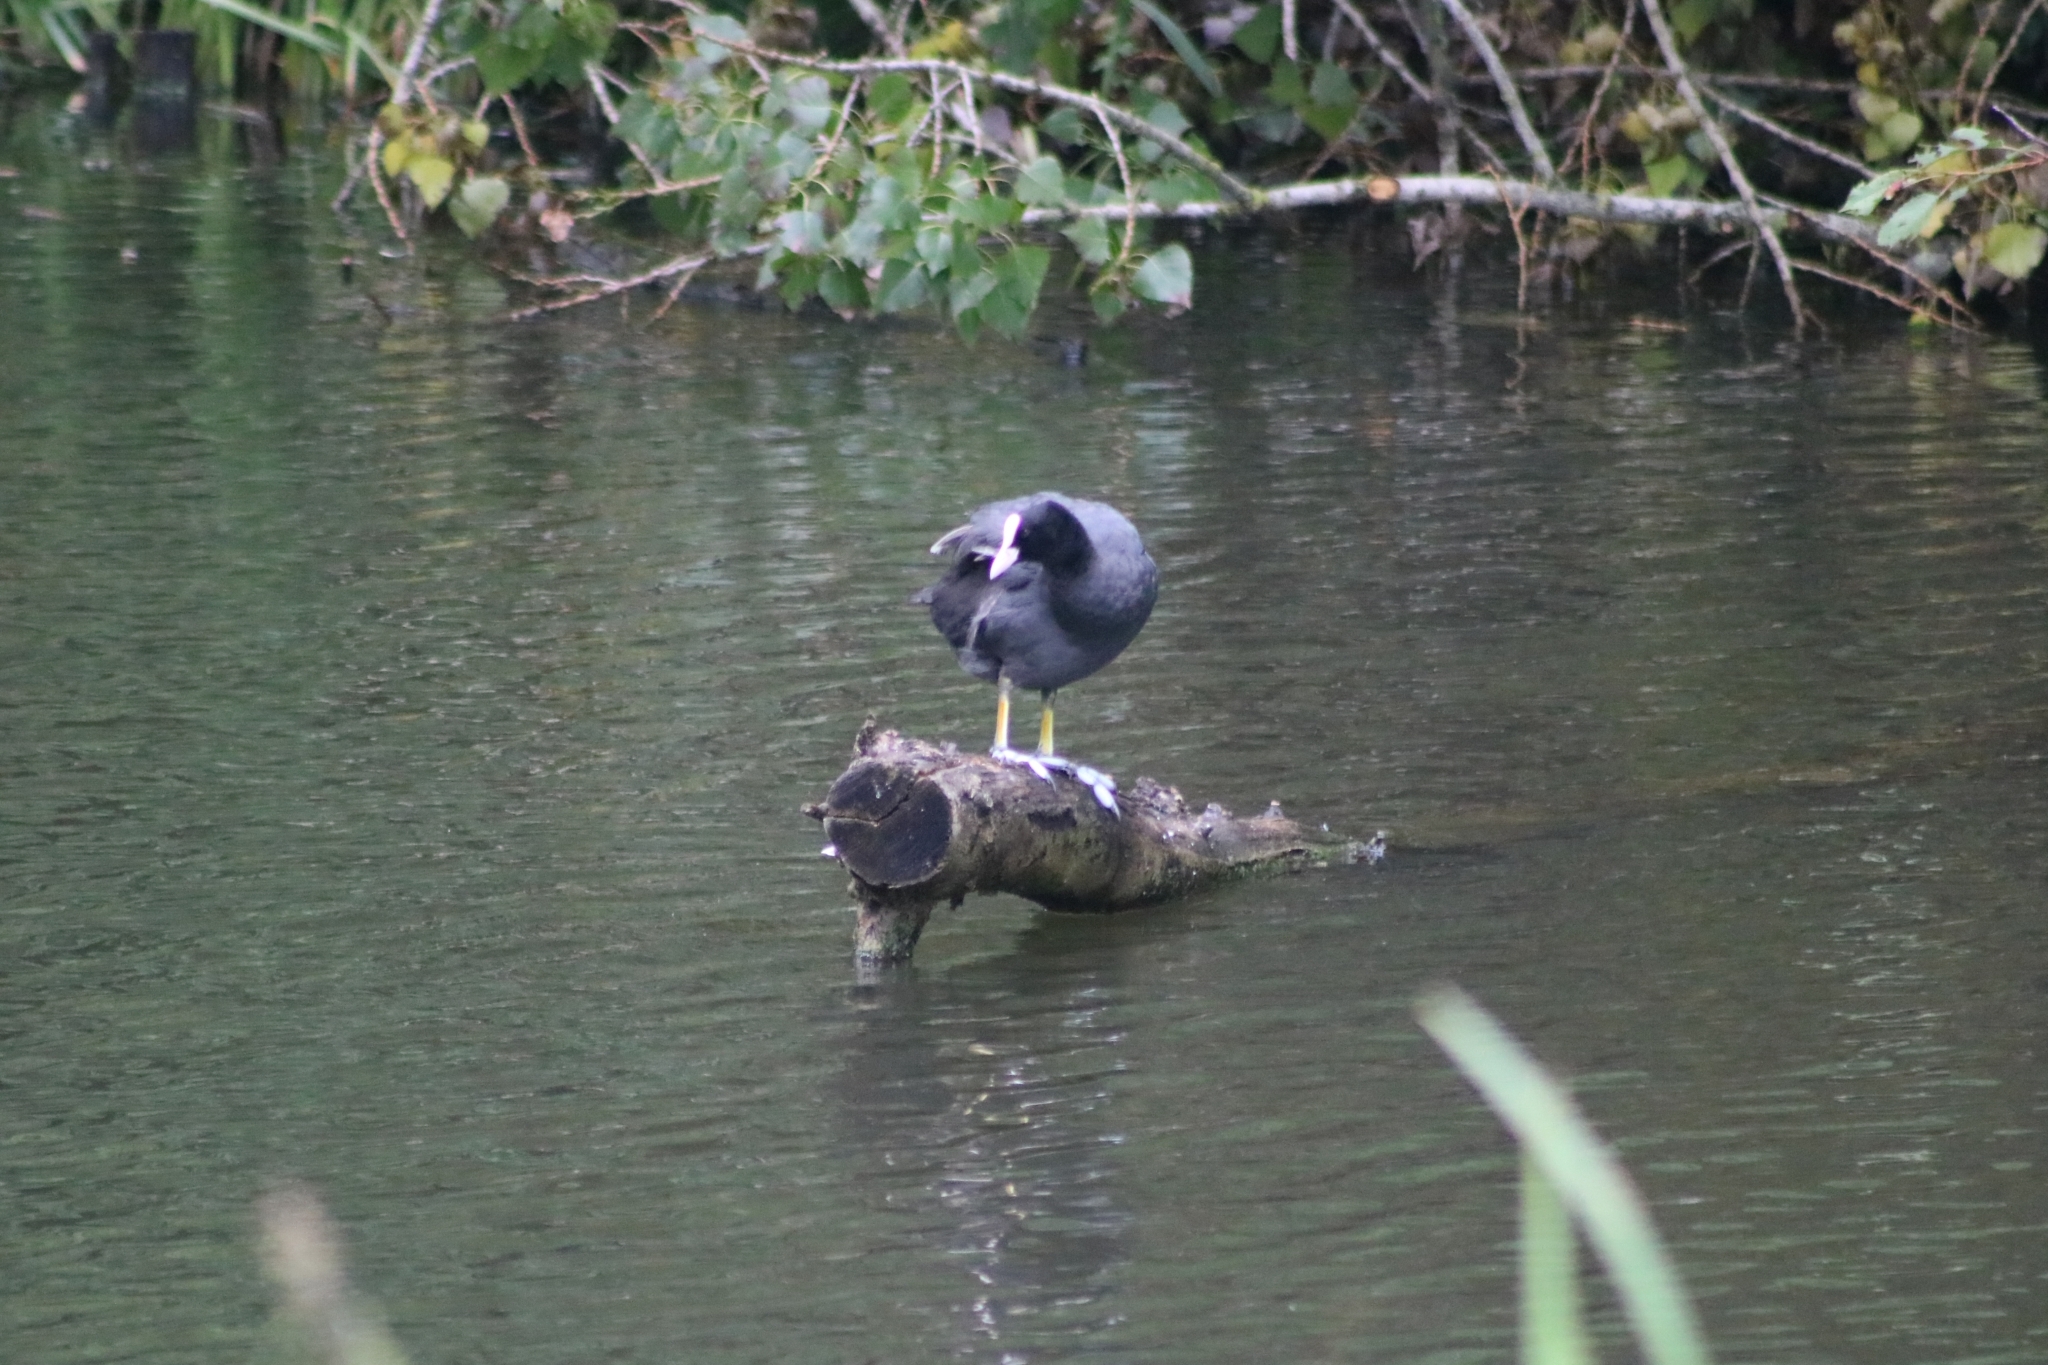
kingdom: Animalia
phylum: Chordata
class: Aves
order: Gruiformes
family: Rallidae
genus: Fulica
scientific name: Fulica atra
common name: Eurasian coot
